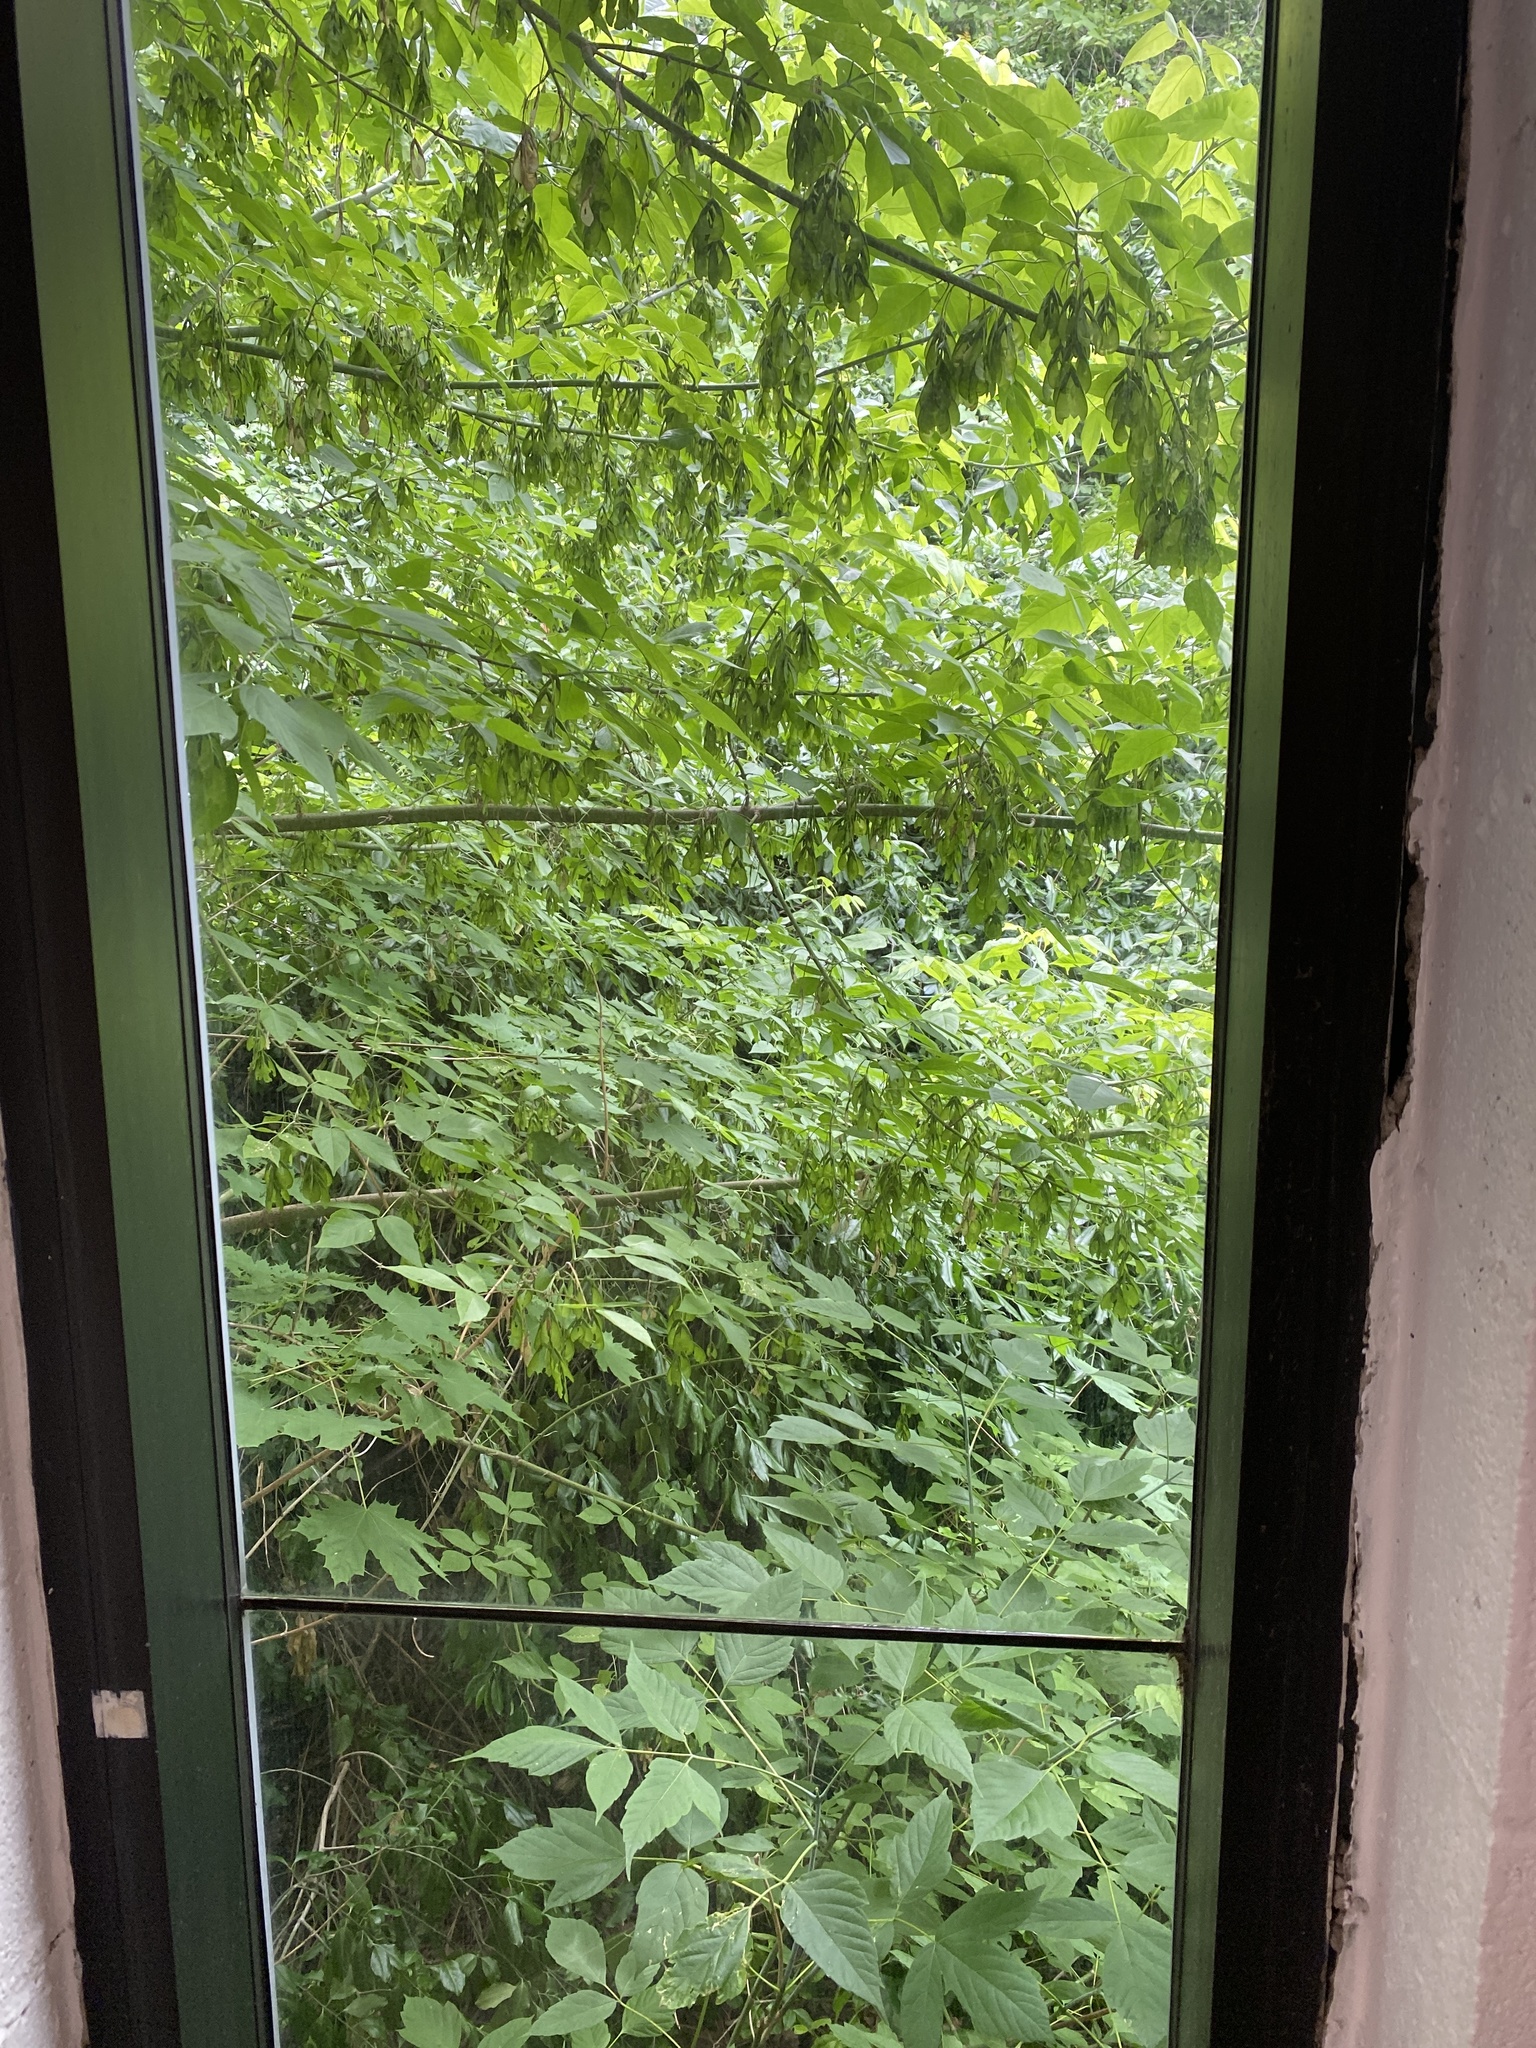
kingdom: Plantae
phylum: Tracheophyta
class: Magnoliopsida
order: Sapindales
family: Sapindaceae
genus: Acer
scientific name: Acer negundo
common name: Ashleaf maple
